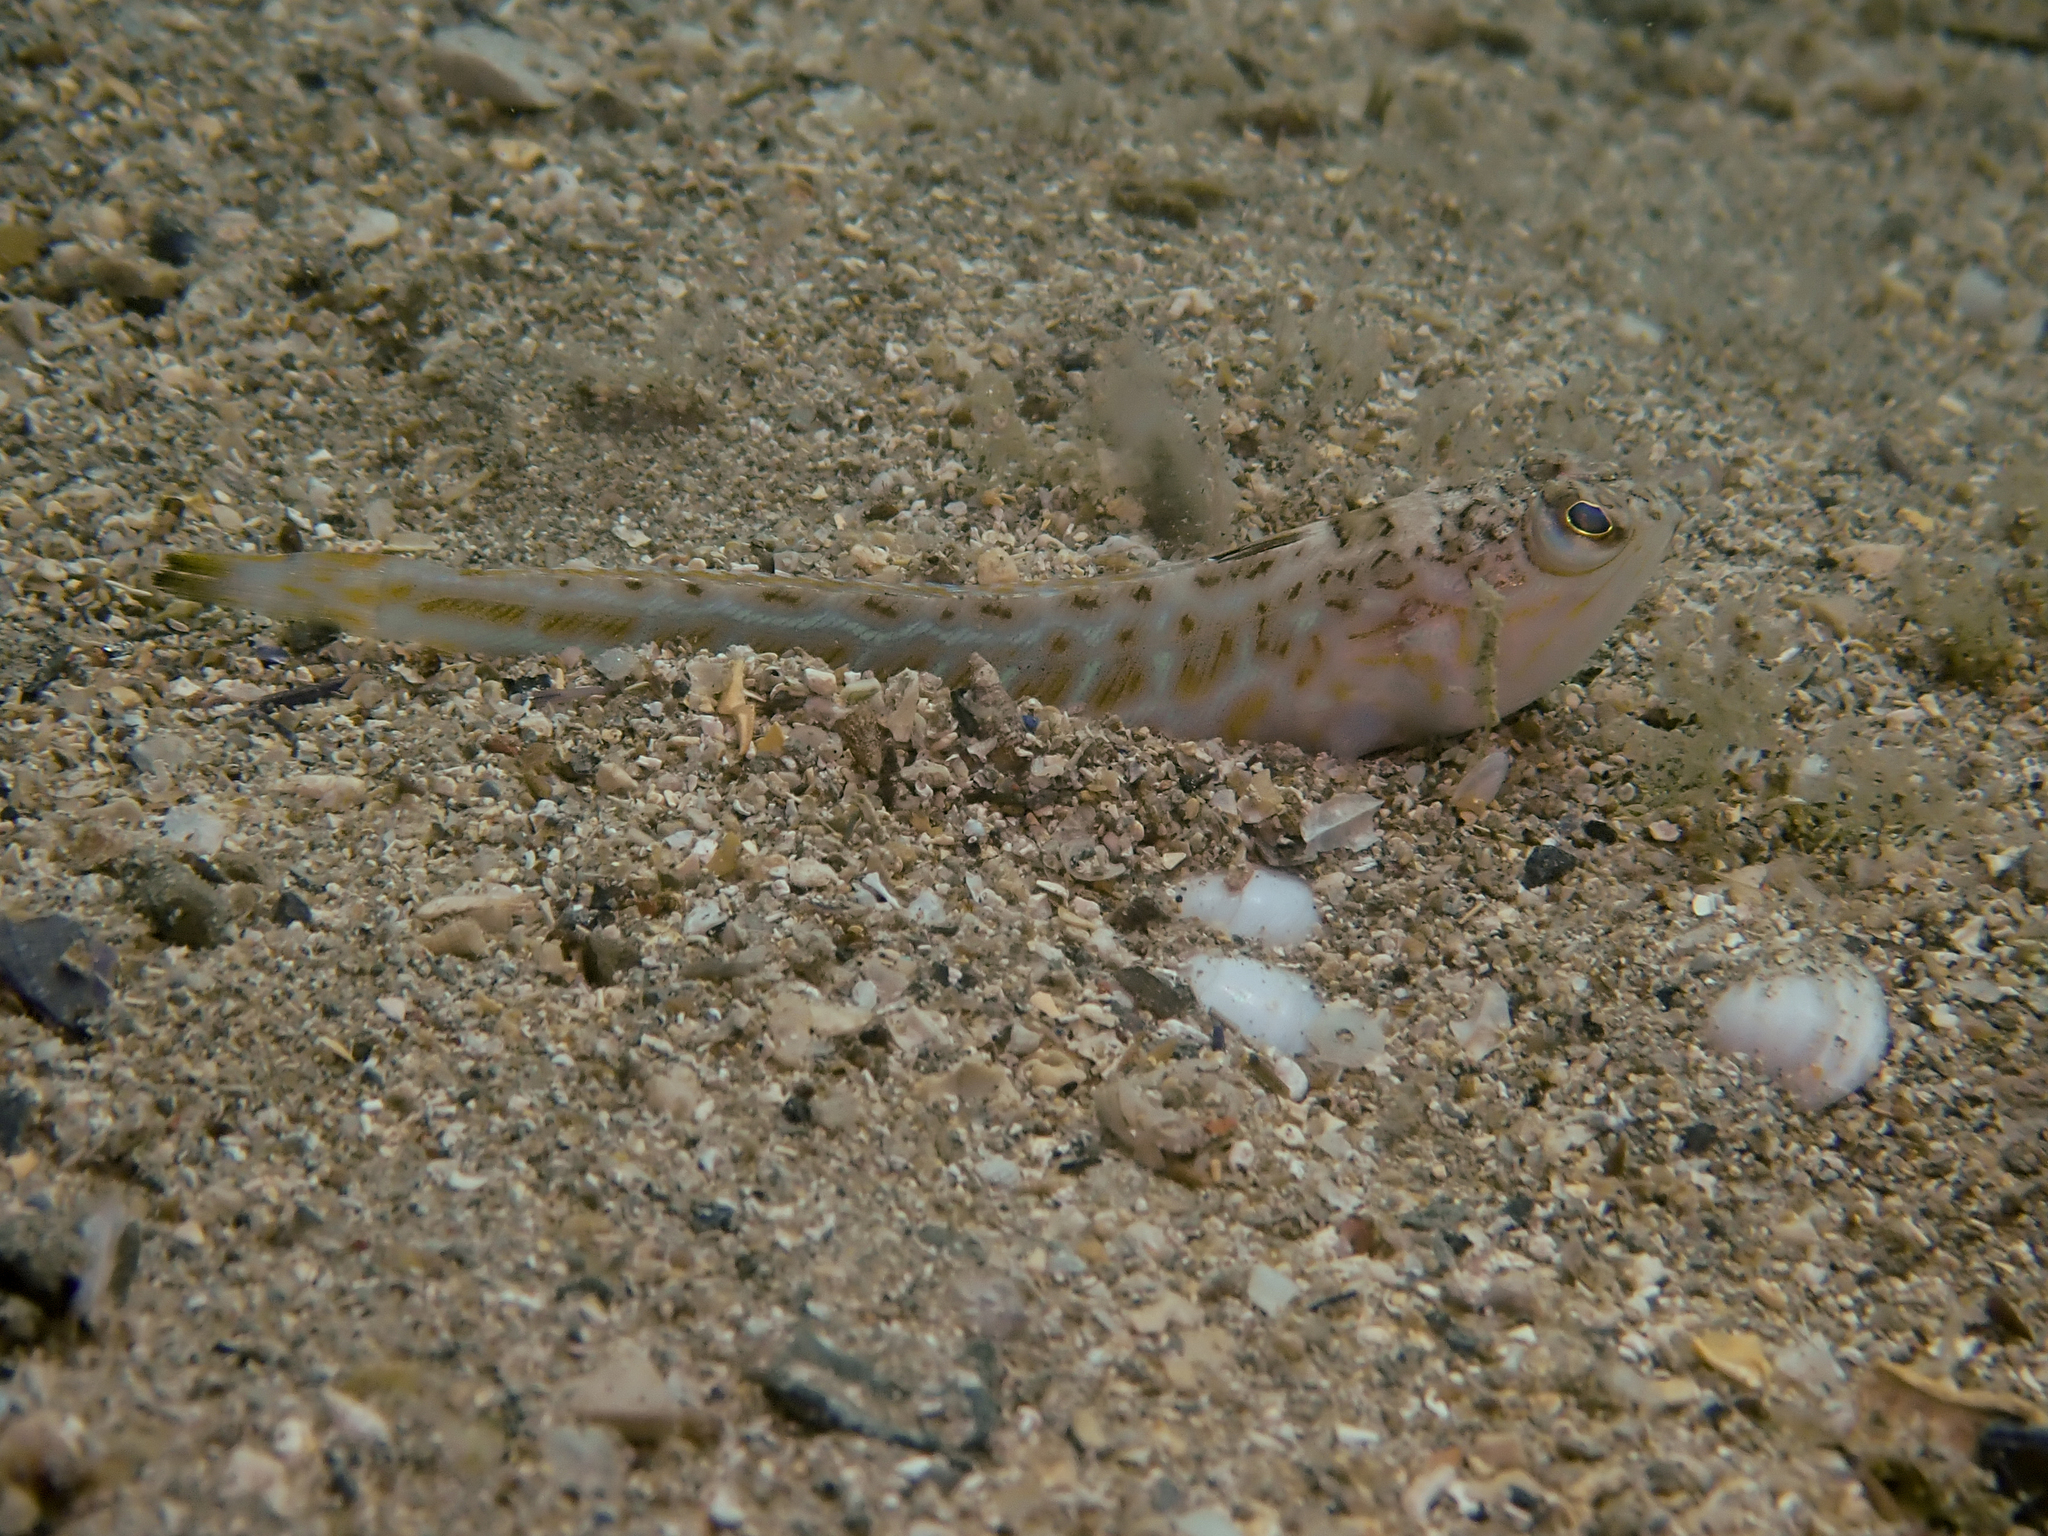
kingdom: Animalia
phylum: Chordata
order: Perciformes
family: Trachinidae
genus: Trachinus
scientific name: Trachinus draco
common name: Greater weever
